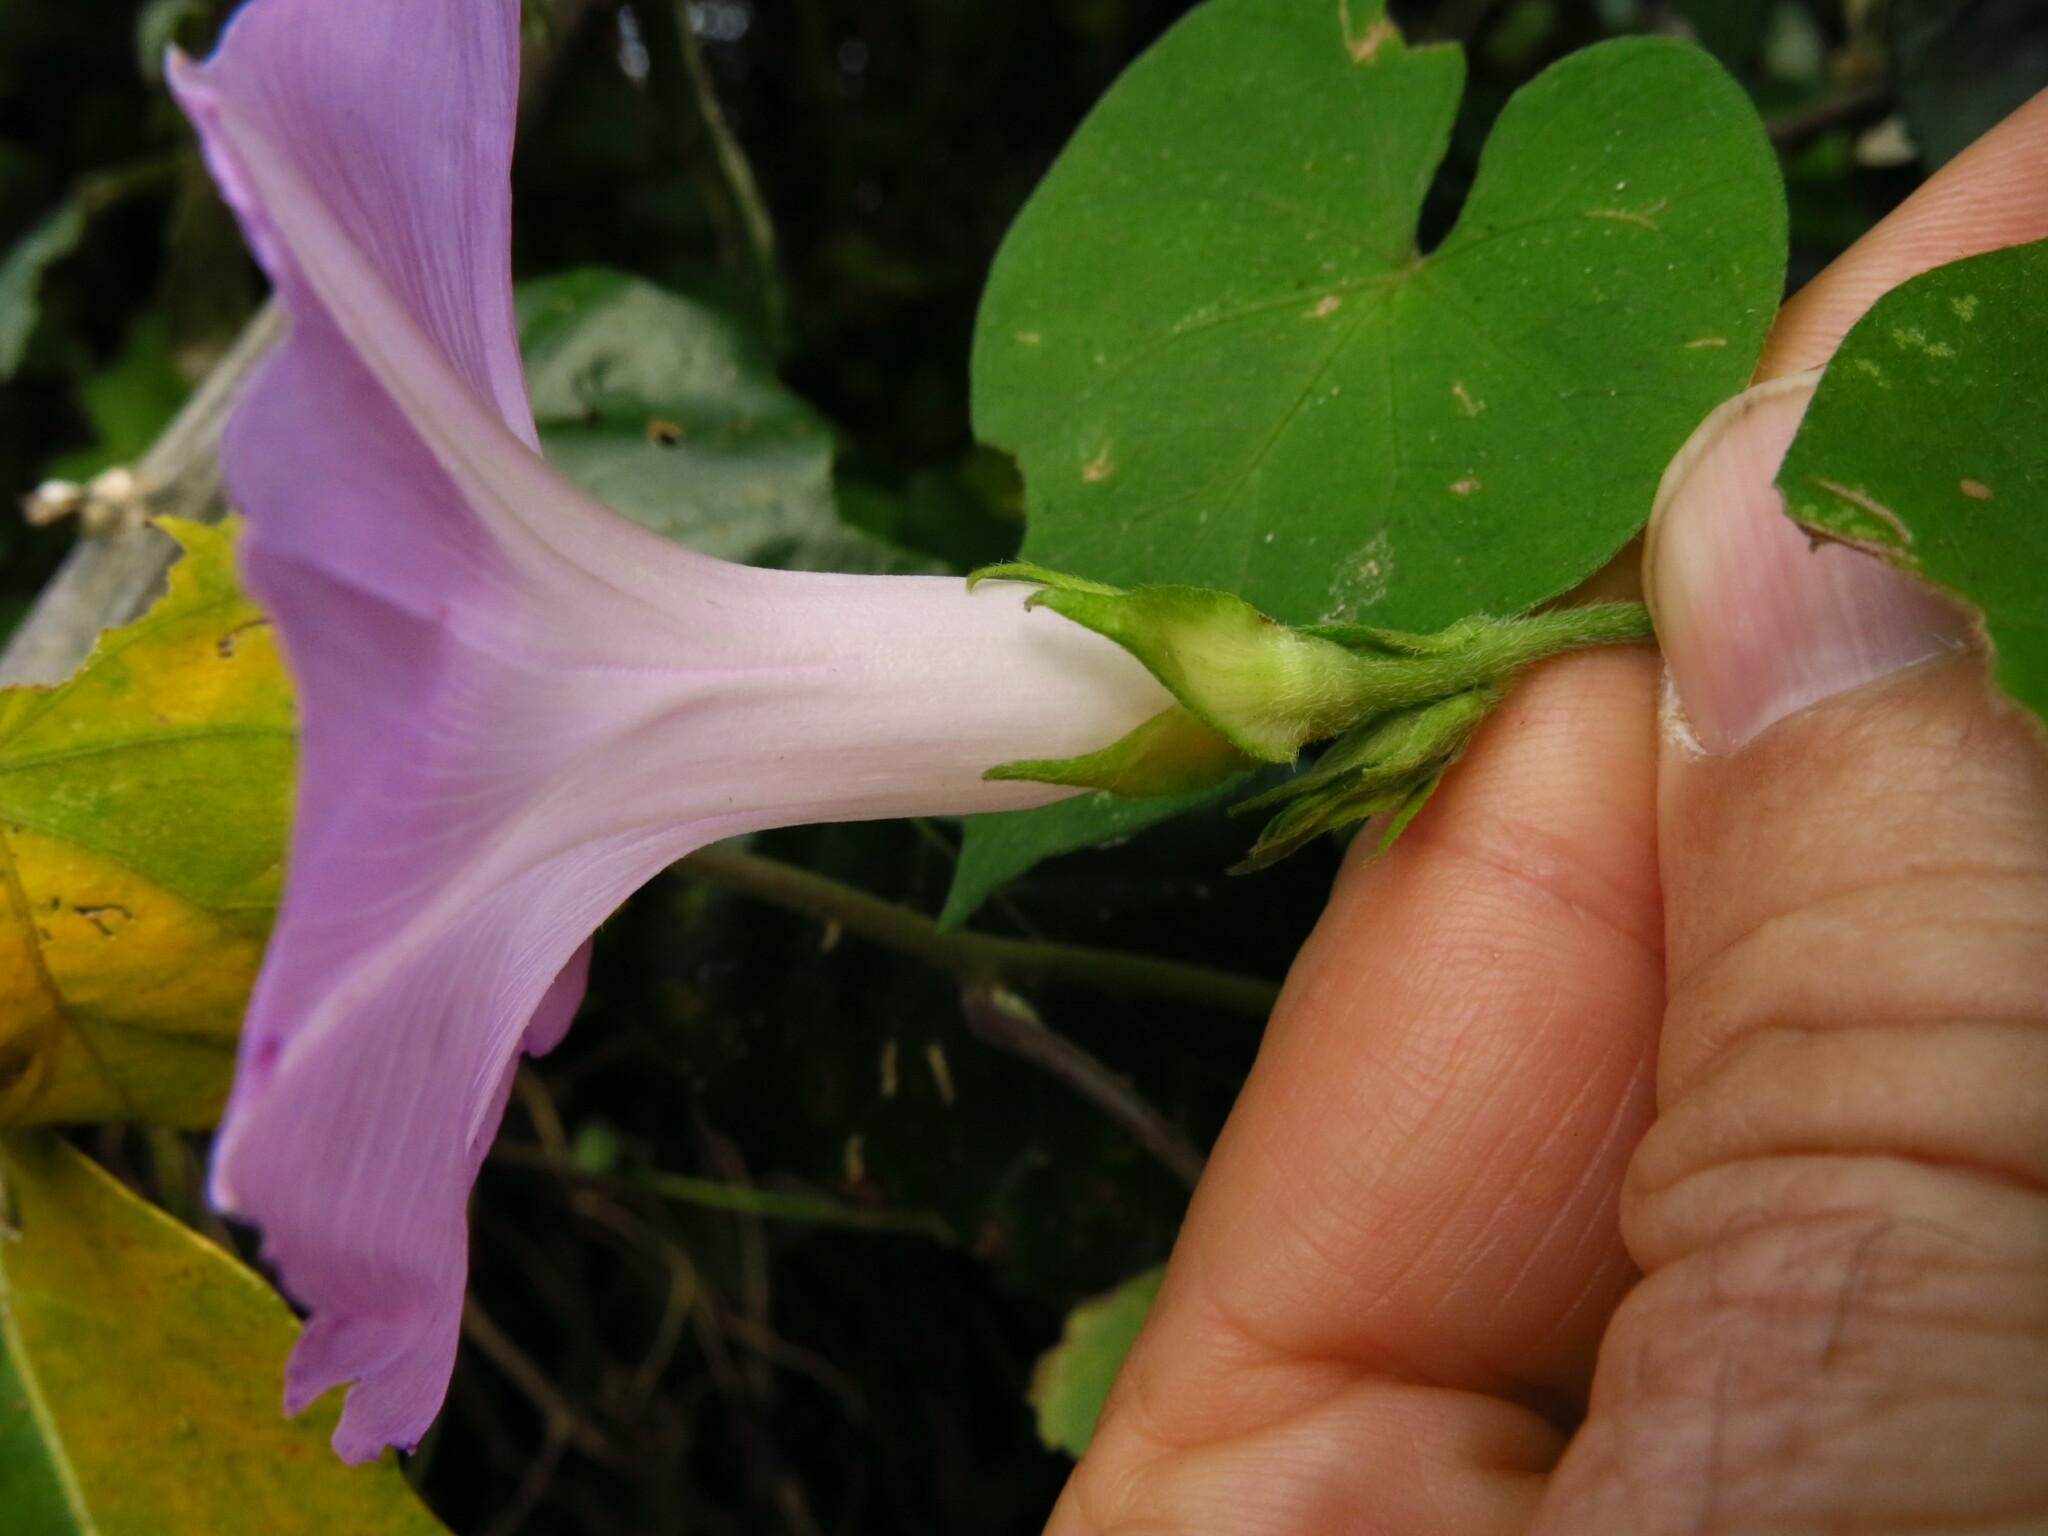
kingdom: Plantae
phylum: Tracheophyta
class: Magnoliopsida
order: Solanales
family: Convolvulaceae
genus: Ipomoea
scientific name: Ipomoea indica
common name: Blue dawnflower
